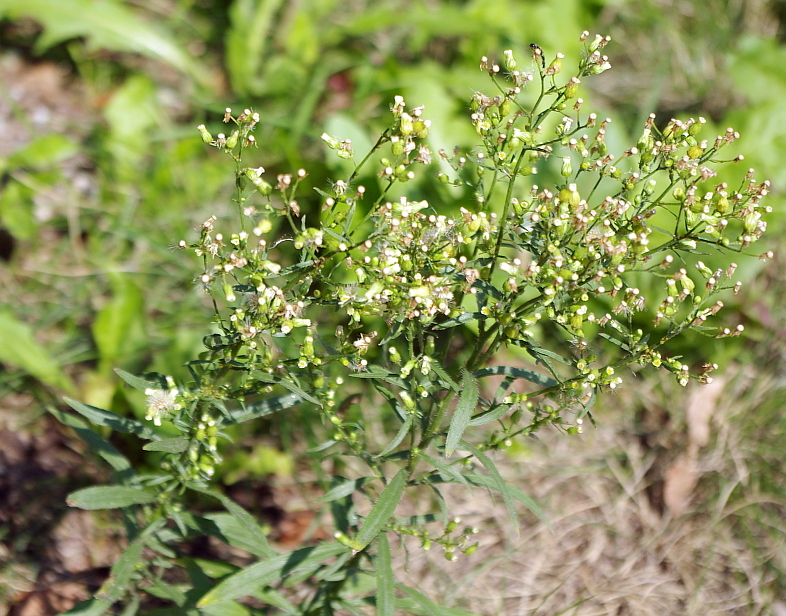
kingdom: Plantae
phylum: Tracheophyta
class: Magnoliopsida
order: Asterales
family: Asteraceae
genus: Erigeron
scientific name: Erigeron canadensis
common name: Canadian fleabane
